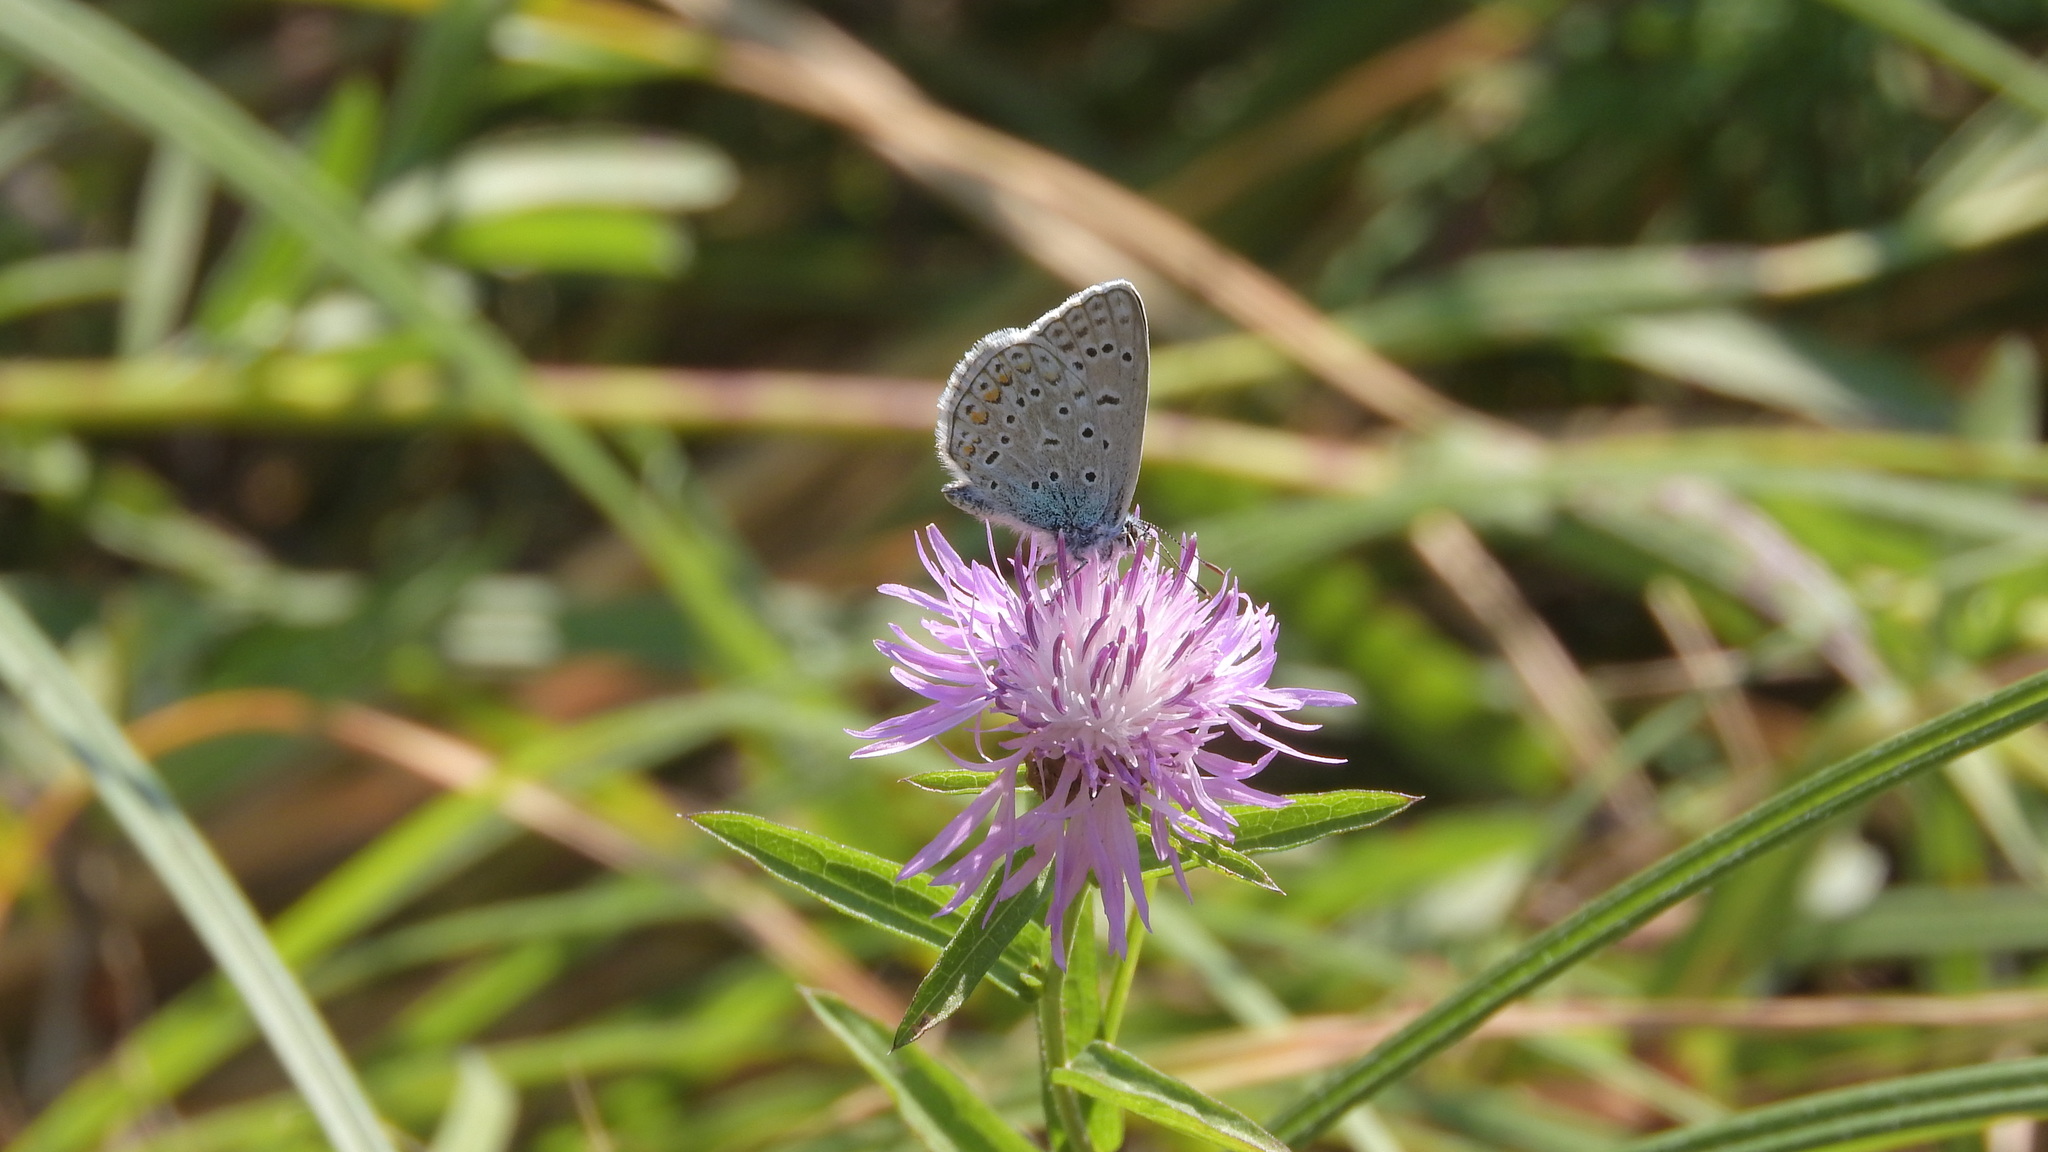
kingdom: Animalia
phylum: Arthropoda
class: Insecta
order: Lepidoptera
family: Lycaenidae
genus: Polyommatus
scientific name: Polyommatus icarus
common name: Common blue
